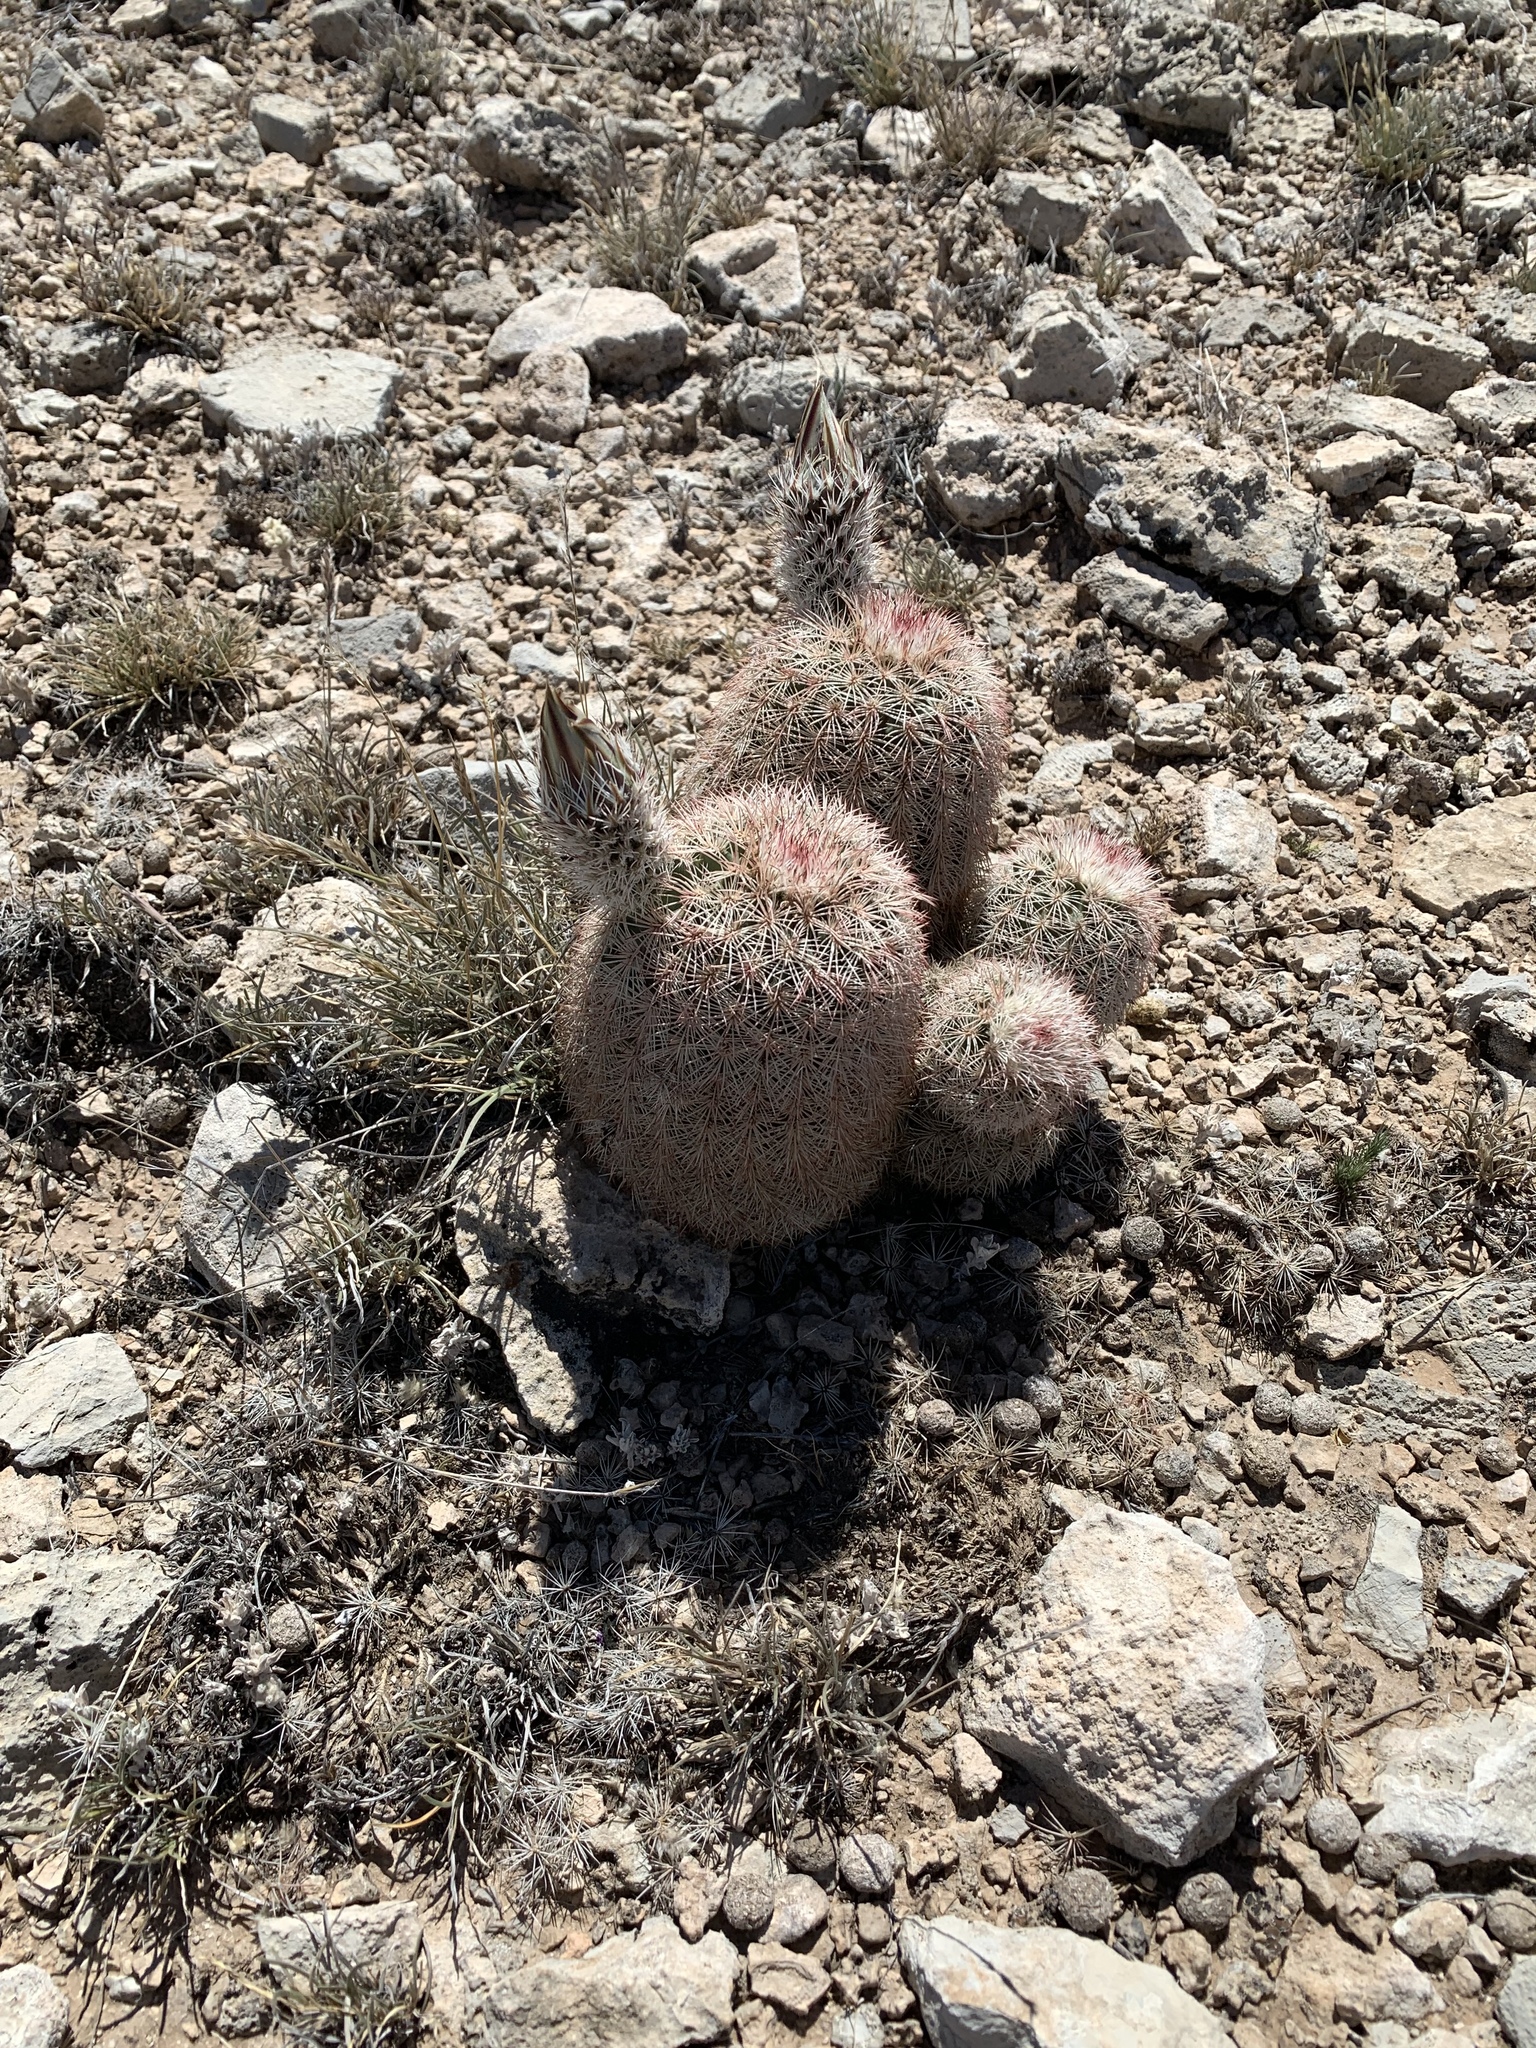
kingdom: Plantae
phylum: Tracheophyta
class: Magnoliopsida
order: Caryophyllales
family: Cactaceae
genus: Echinocereus
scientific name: Echinocereus dasyacanthus
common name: Spiny hedgehog cactus
